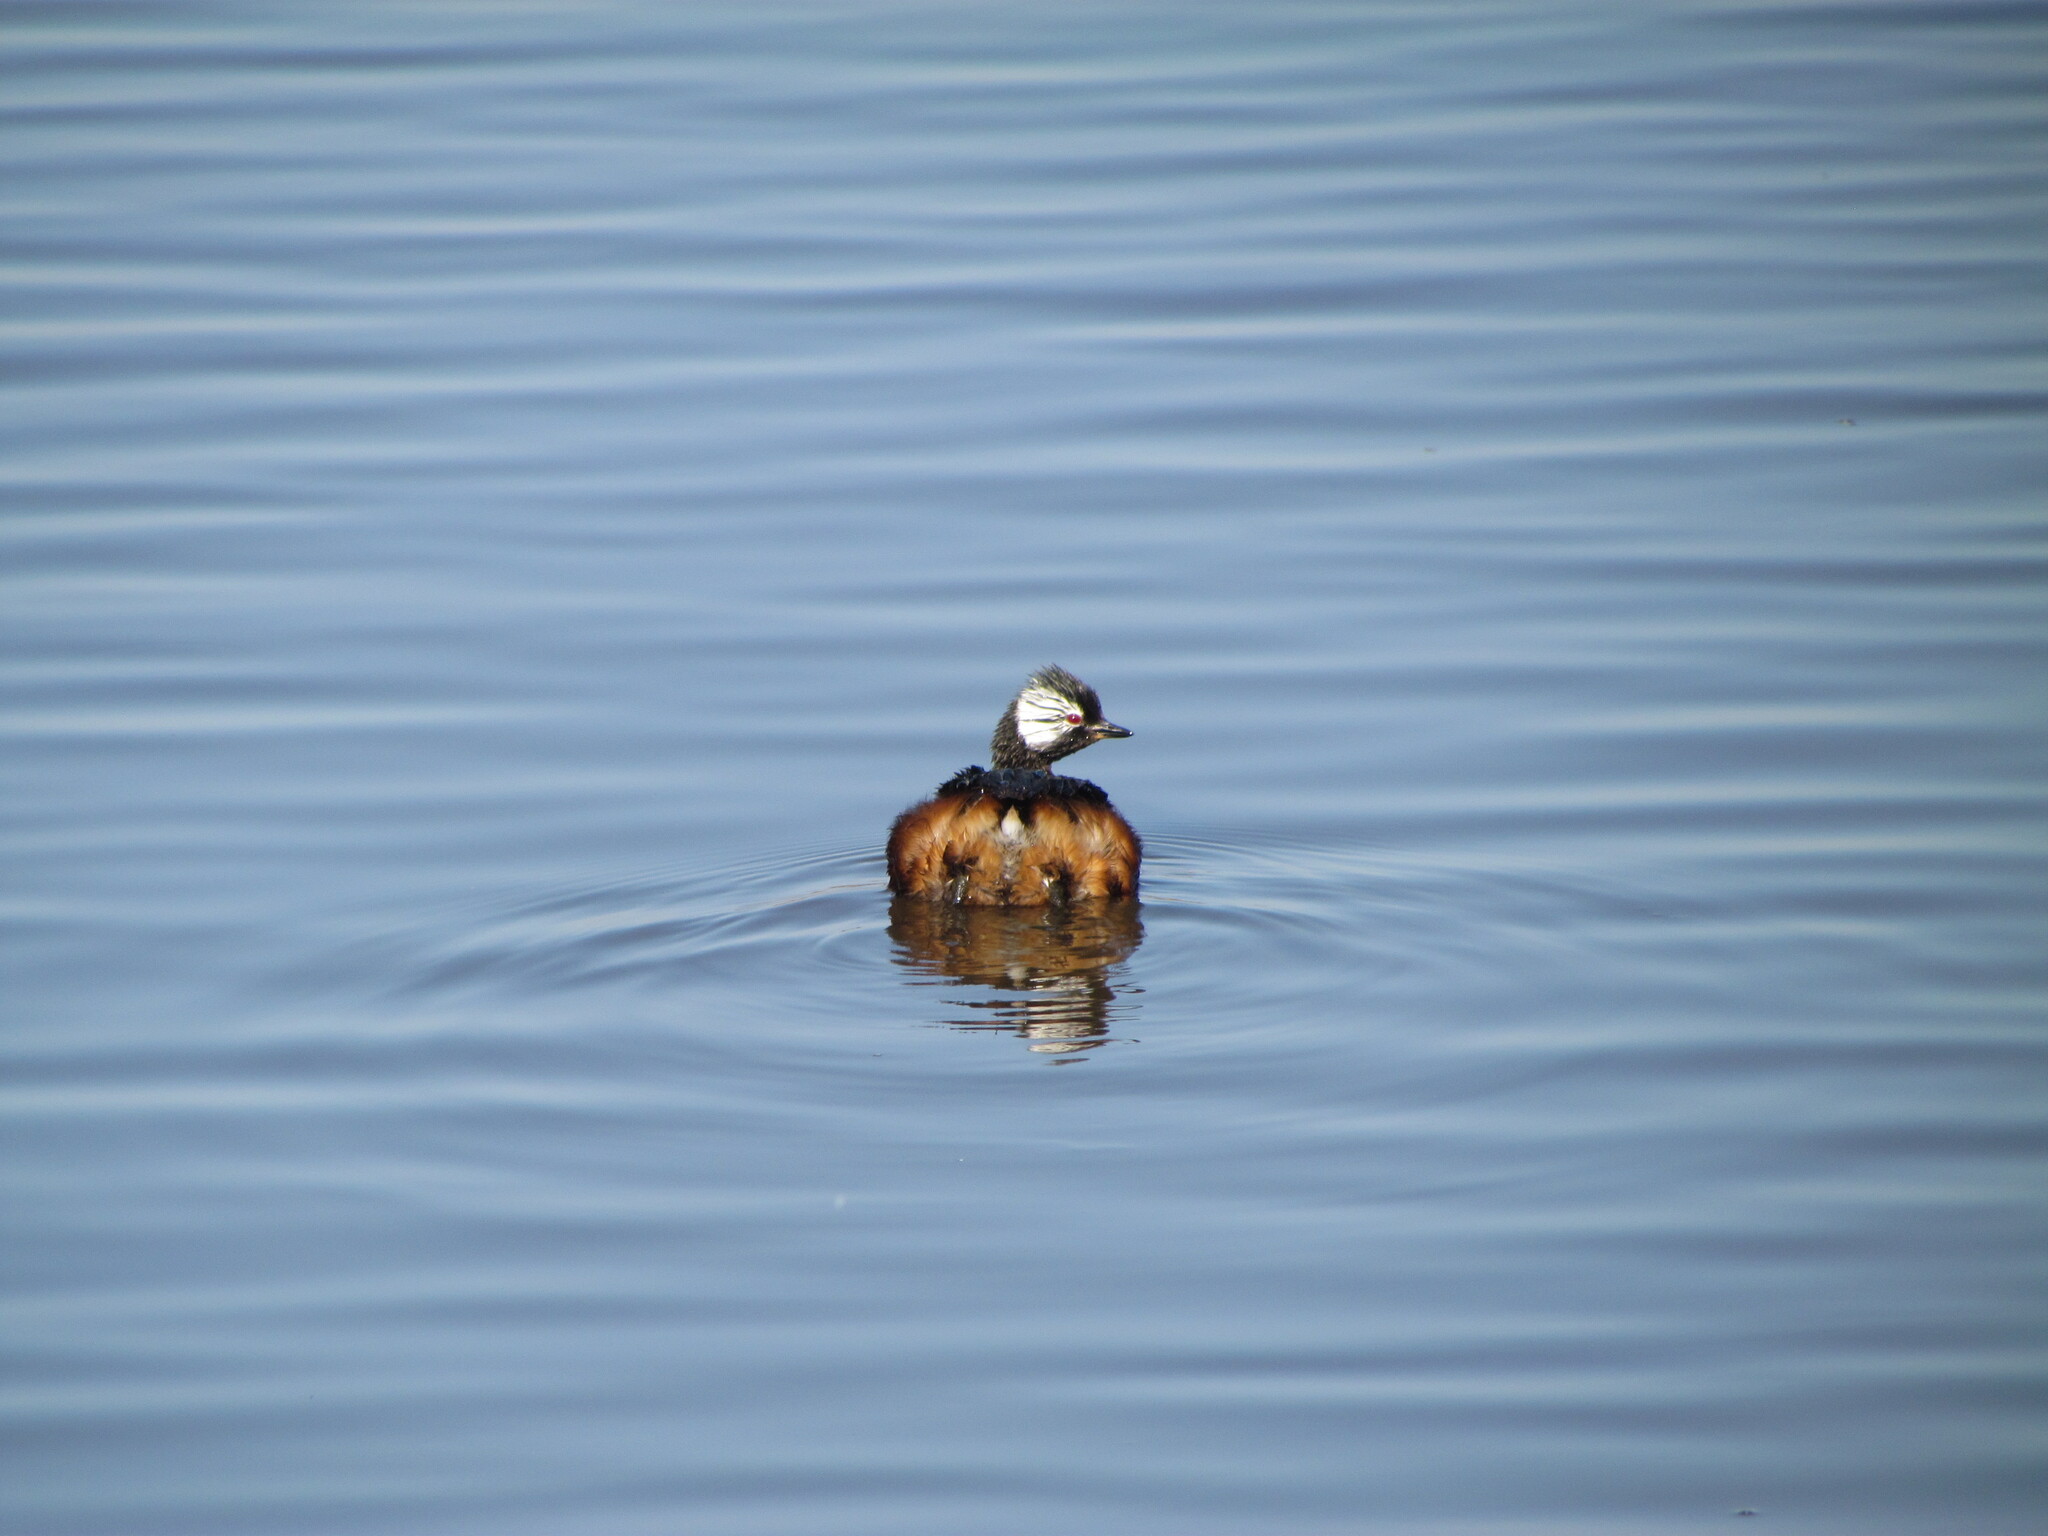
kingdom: Animalia
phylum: Chordata
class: Aves
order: Podicipediformes
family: Podicipedidae
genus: Rollandia
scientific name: Rollandia rolland
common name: White-tufted grebe
